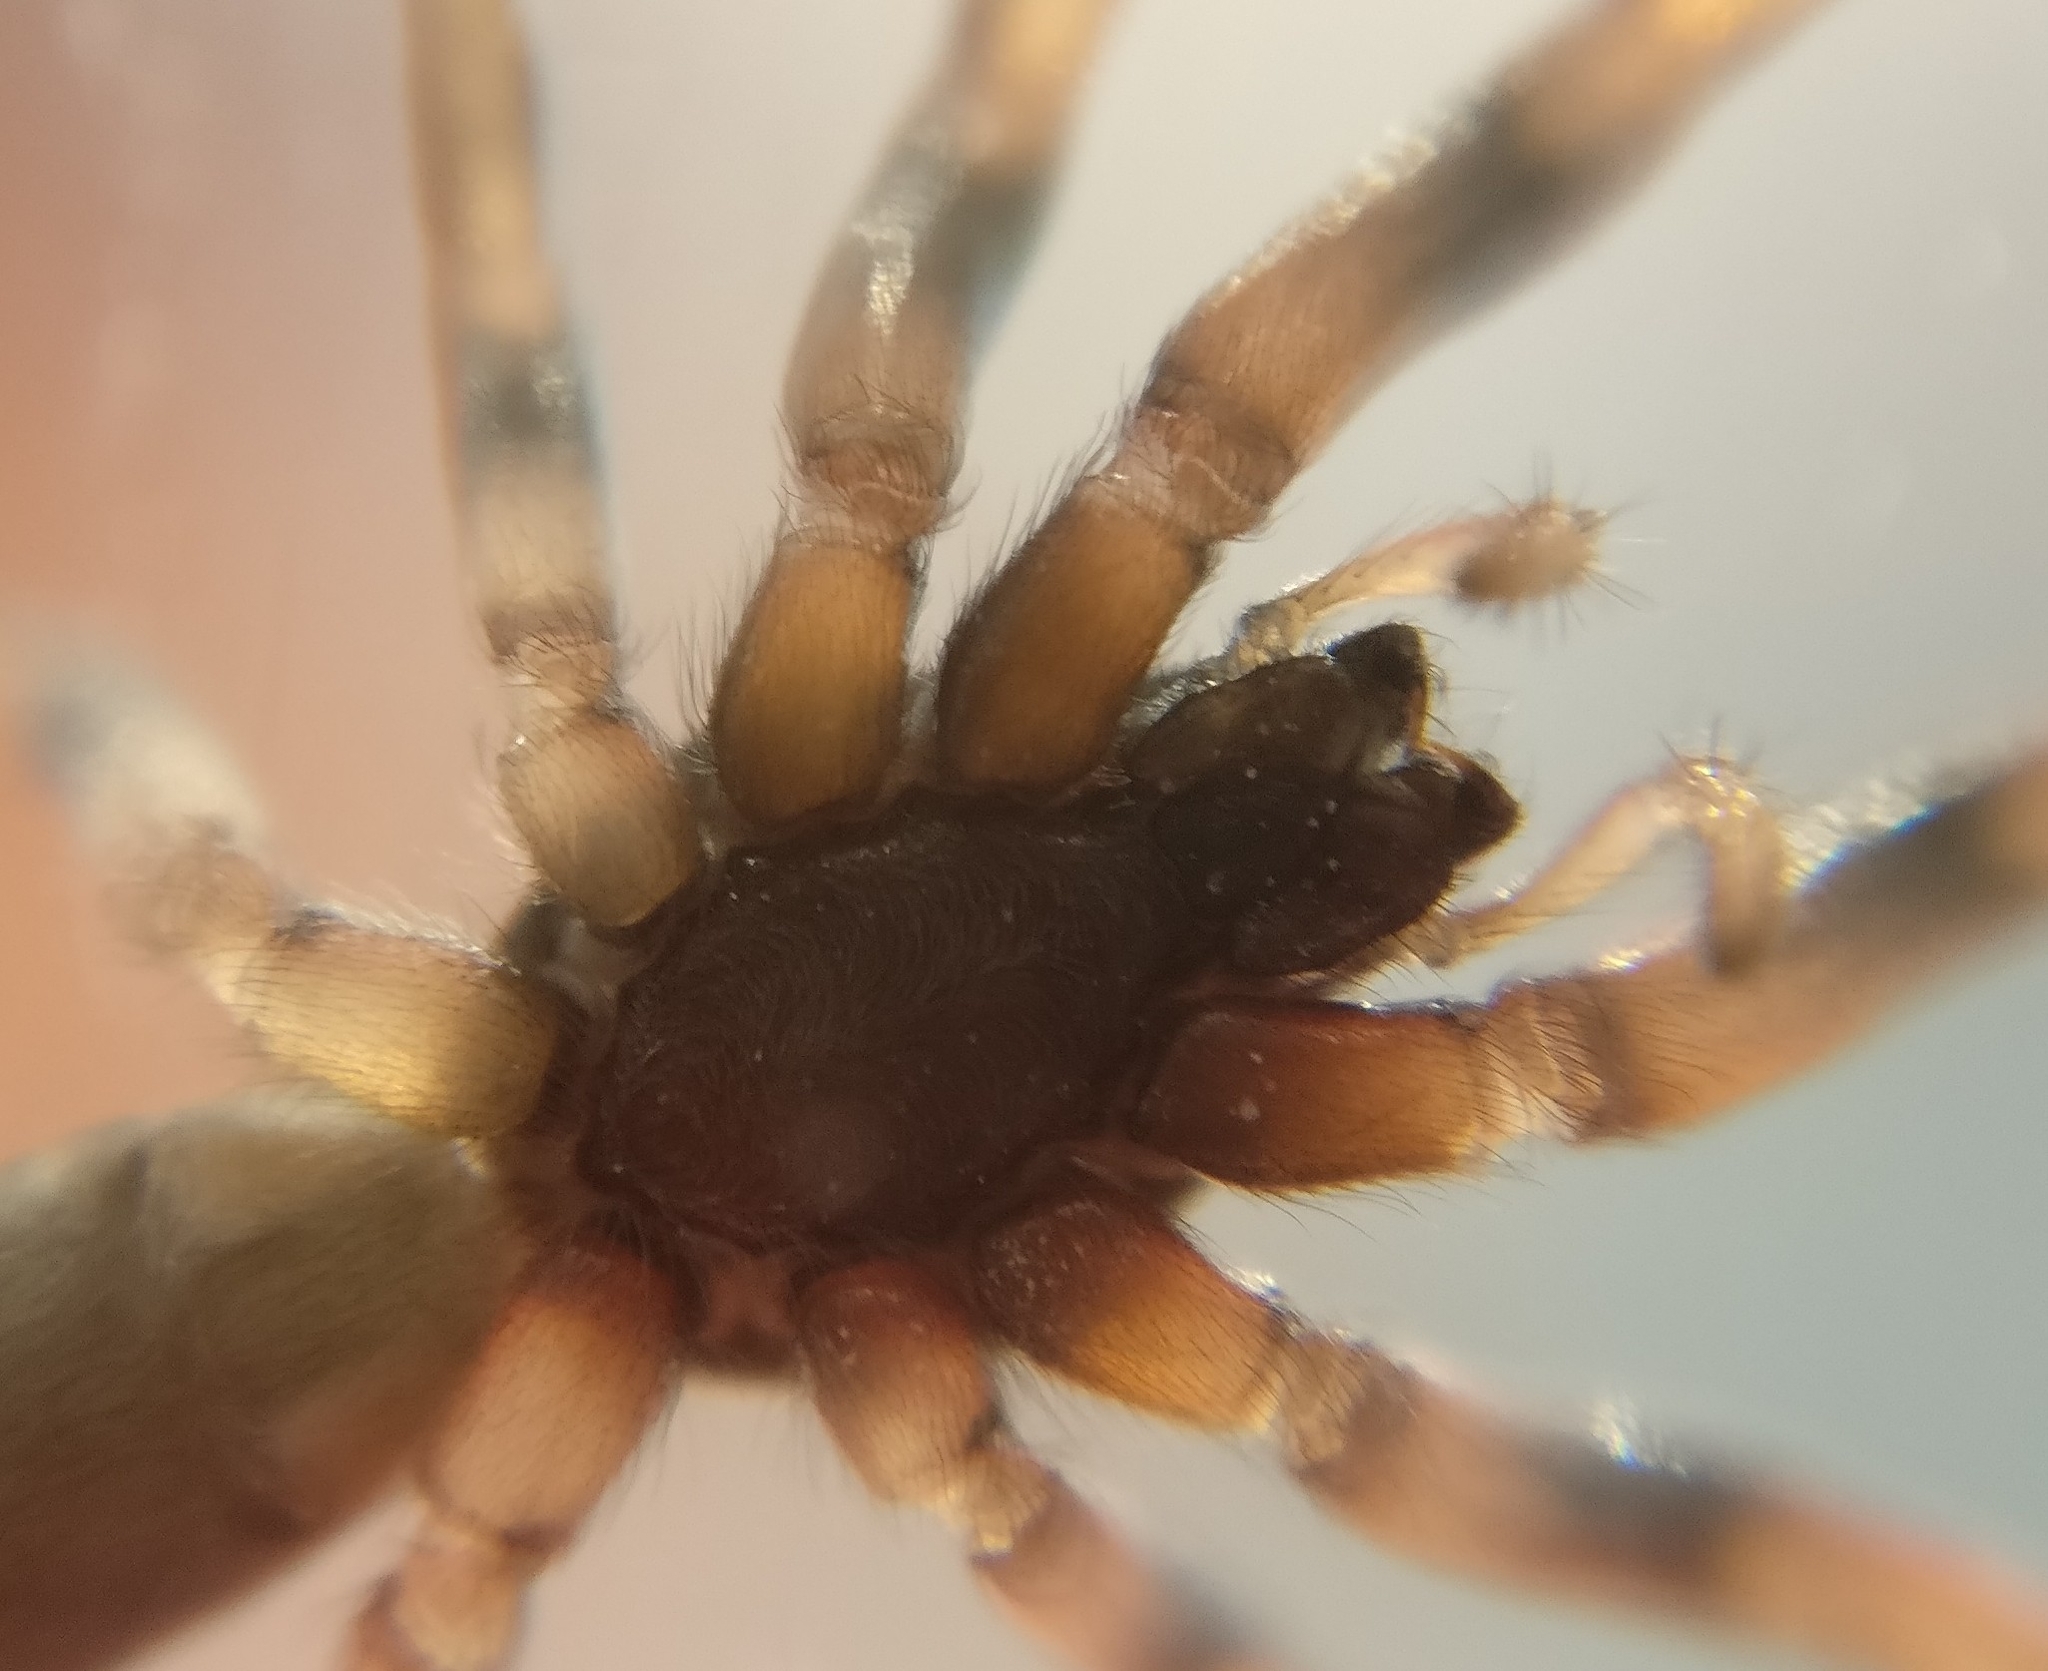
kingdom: Animalia
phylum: Arthropoda
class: Arachnida
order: Araneae
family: Lamponidae
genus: Lampona
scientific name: Lampona cylindrata
